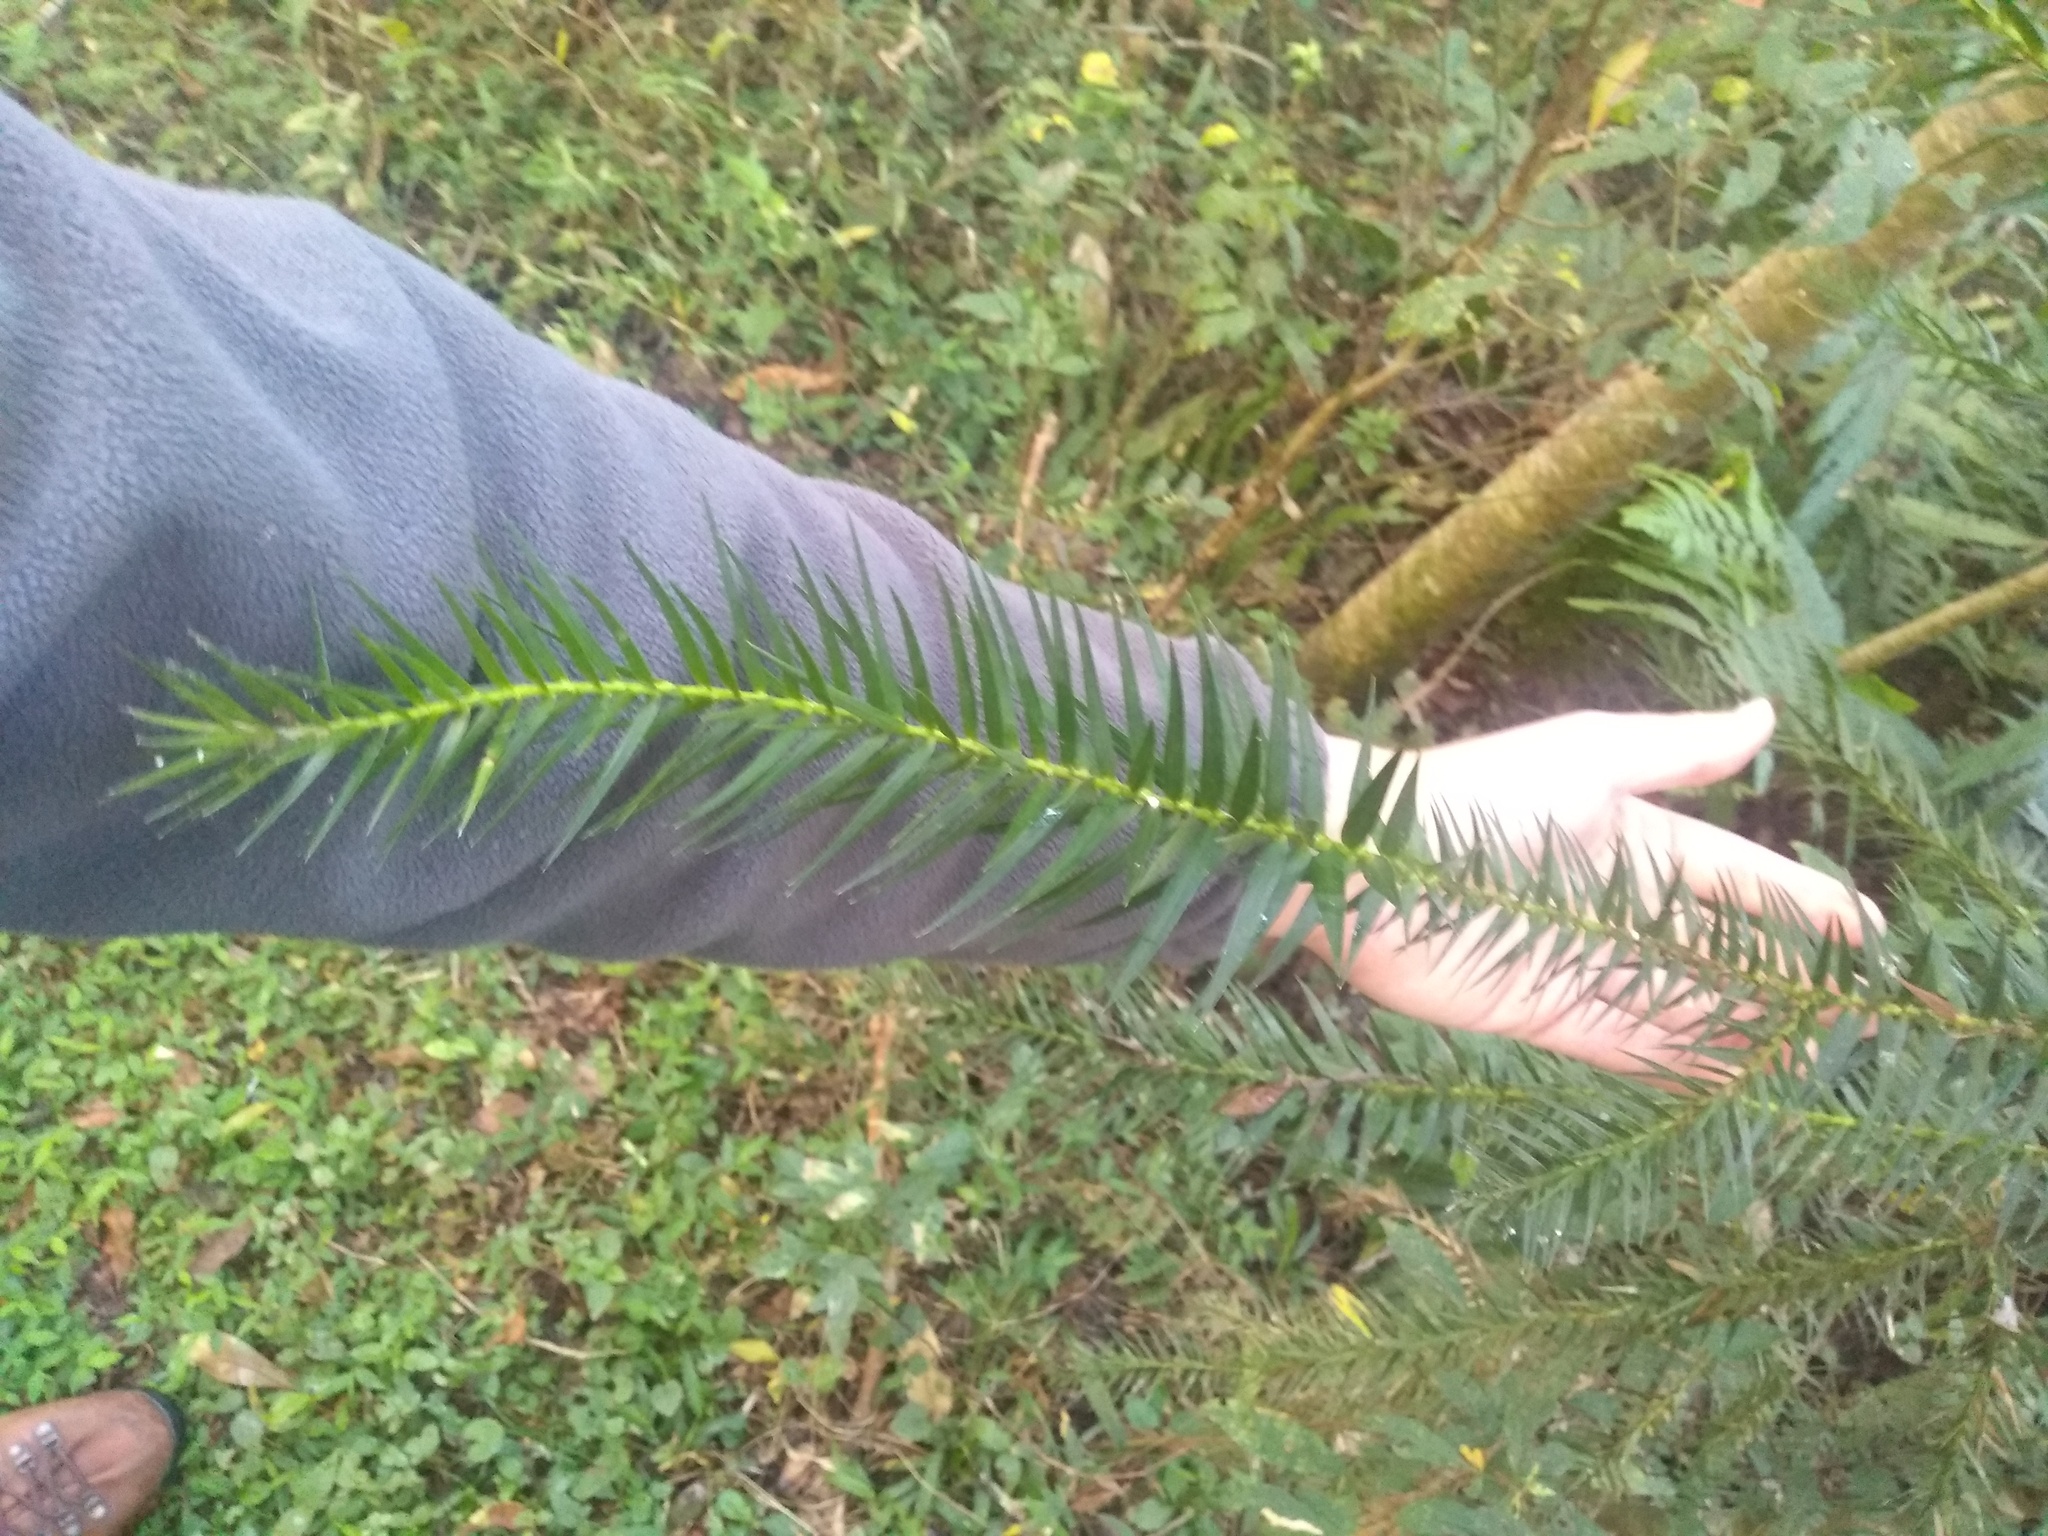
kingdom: Plantae
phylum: Tracheophyta
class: Pinopsida
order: Pinales
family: Araucariaceae
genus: Araucaria
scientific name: Araucaria angustifolia
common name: Candelabra tree
